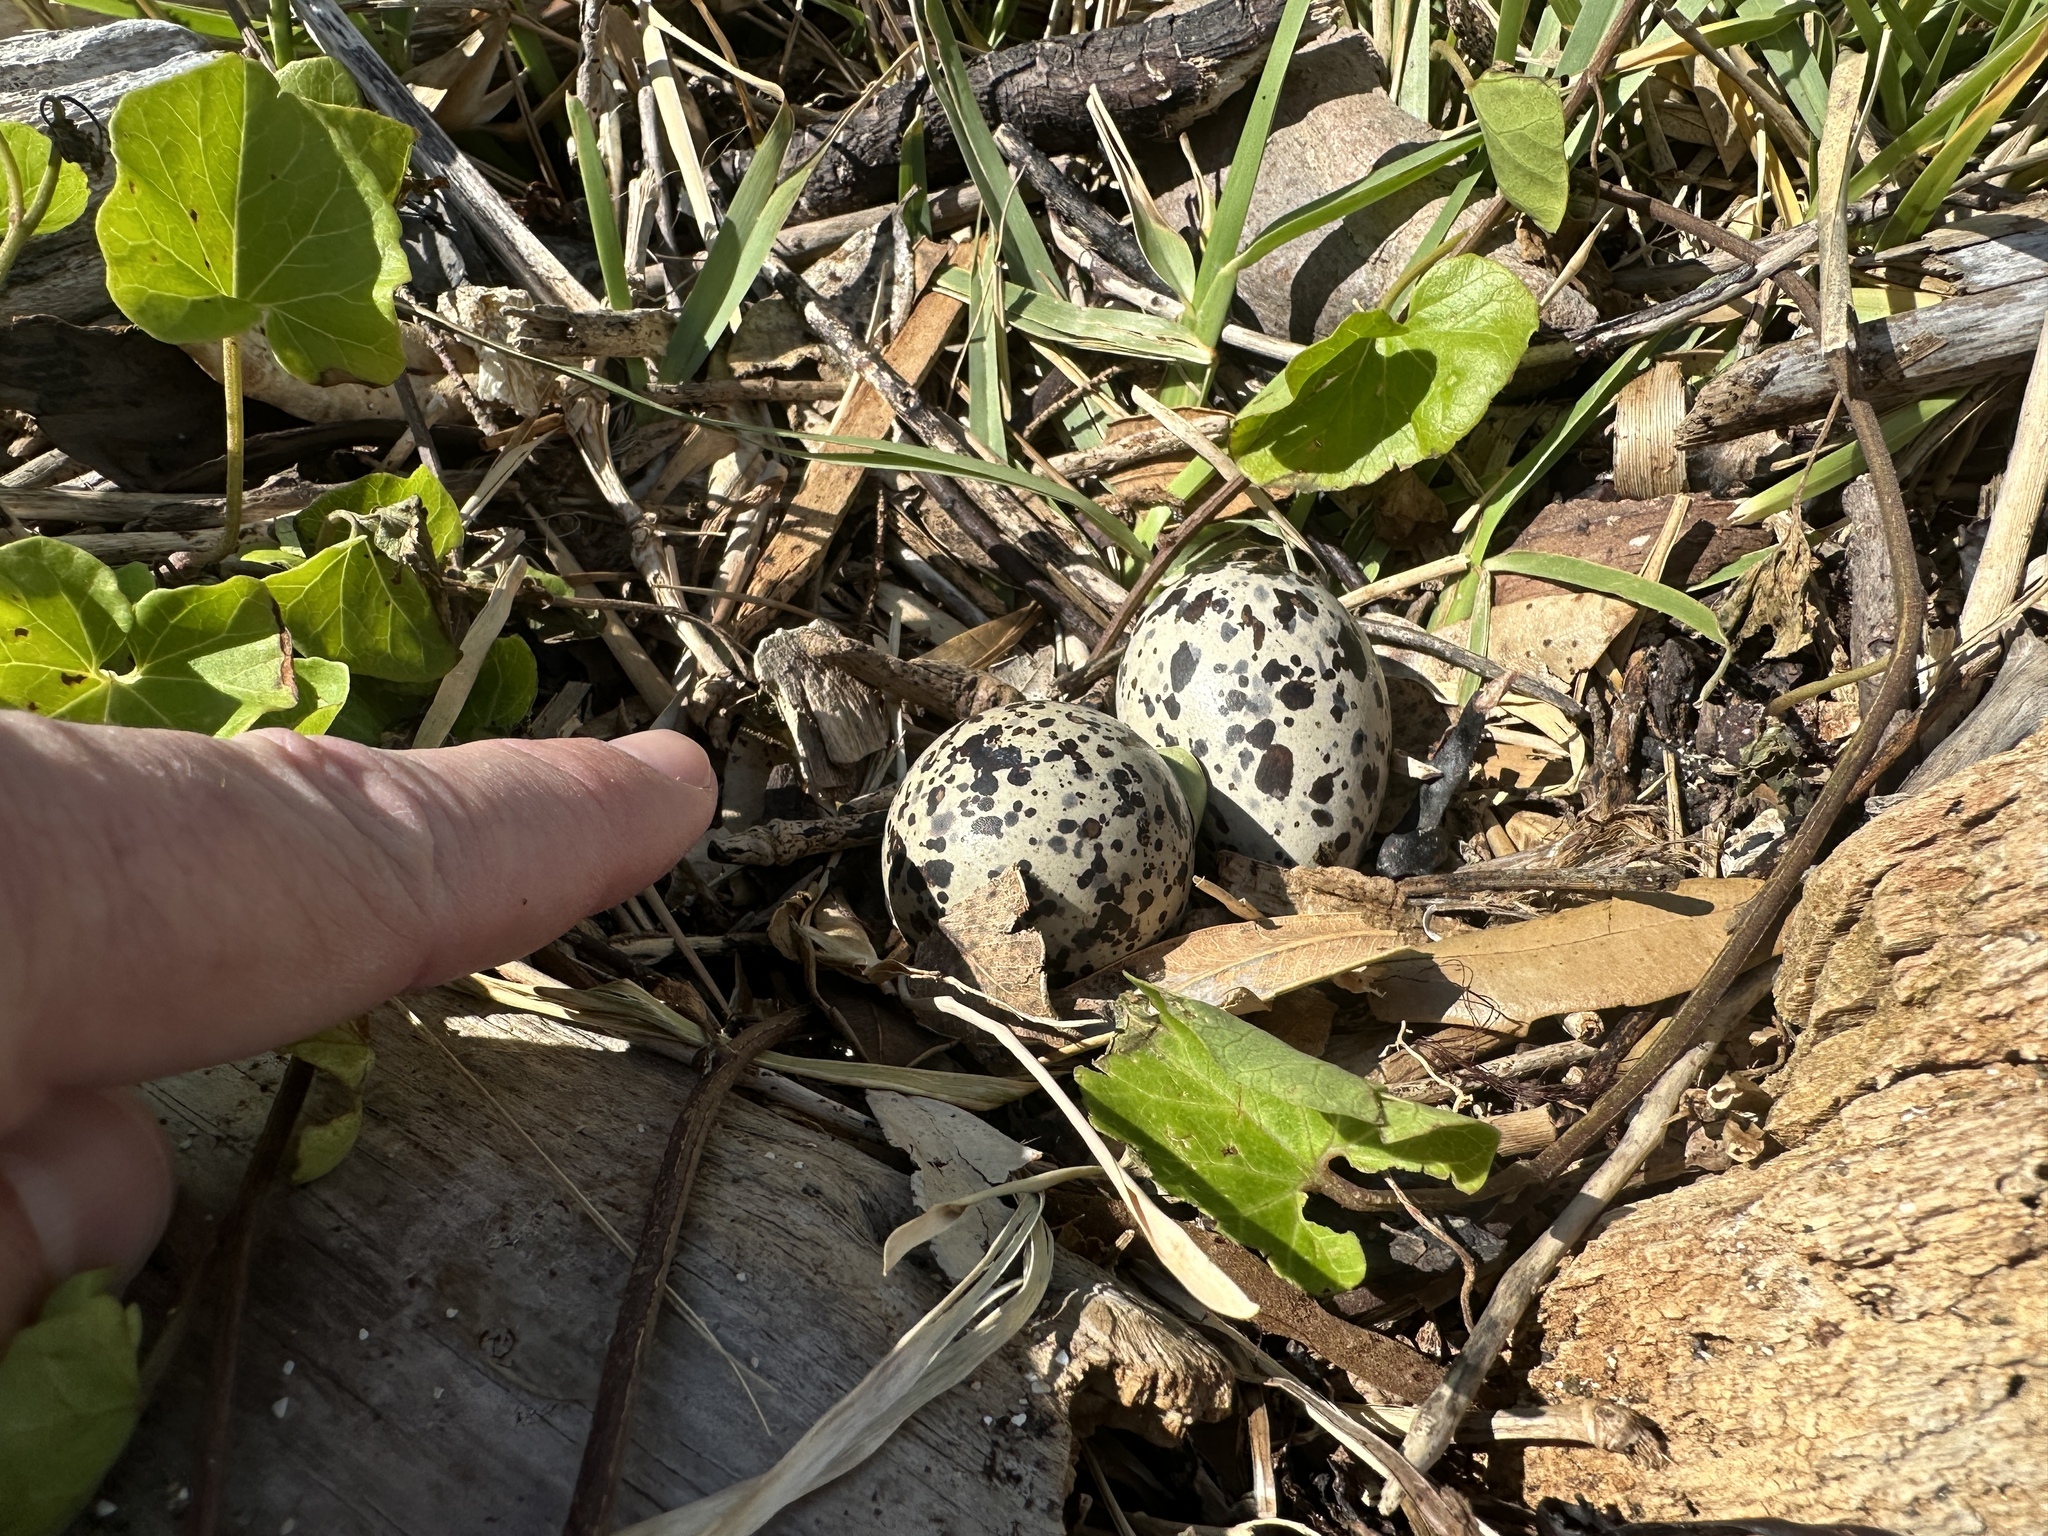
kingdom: Animalia
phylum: Chordata
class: Aves
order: Charadriiformes
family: Haematopodidae
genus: Haematopus
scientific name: Haematopus unicolor
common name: Variable oystercatcher
